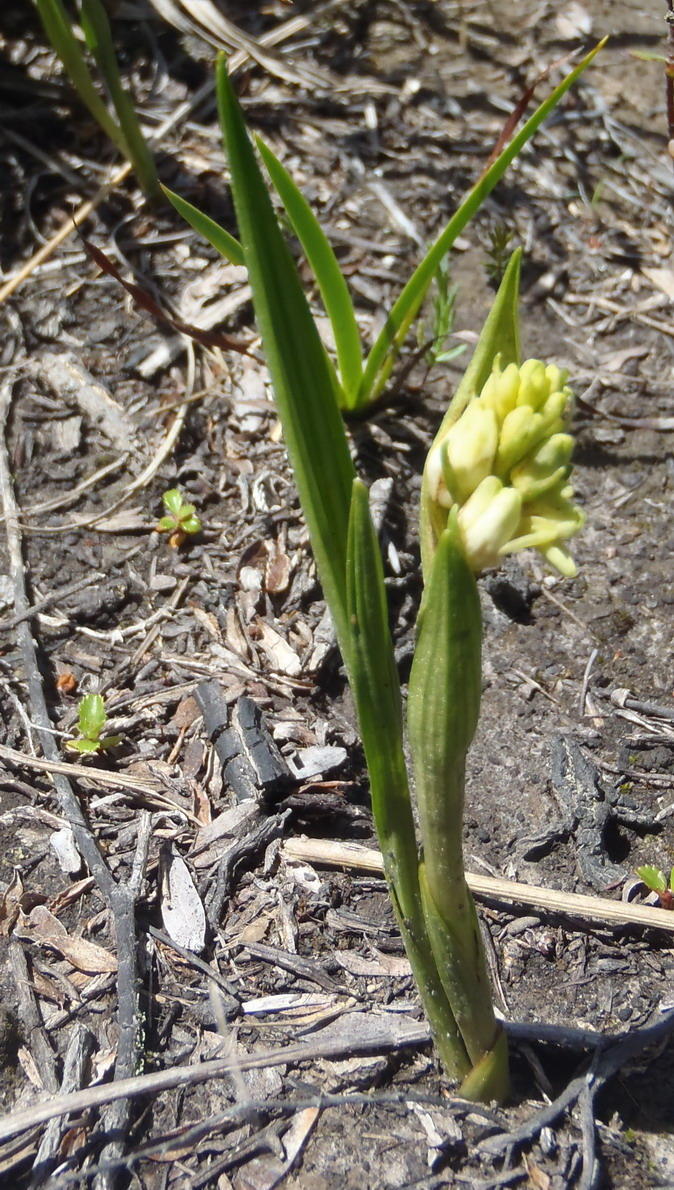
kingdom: Plantae
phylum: Tracheophyta
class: Liliopsida
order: Asparagales
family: Orchidaceae
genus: Eulophia
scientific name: Eulophia aculeata
